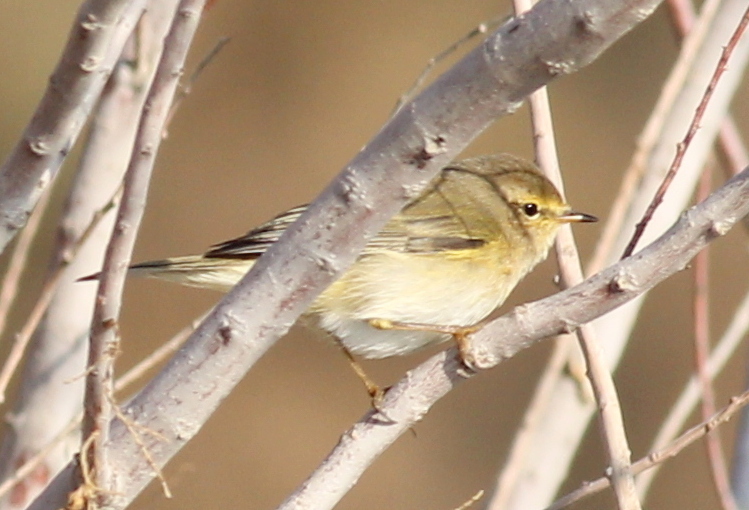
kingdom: Animalia
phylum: Chordata
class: Aves
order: Passeriformes
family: Phylloscopidae
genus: Phylloscopus
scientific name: Phylloscopus collybita
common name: Common chiffchaff
